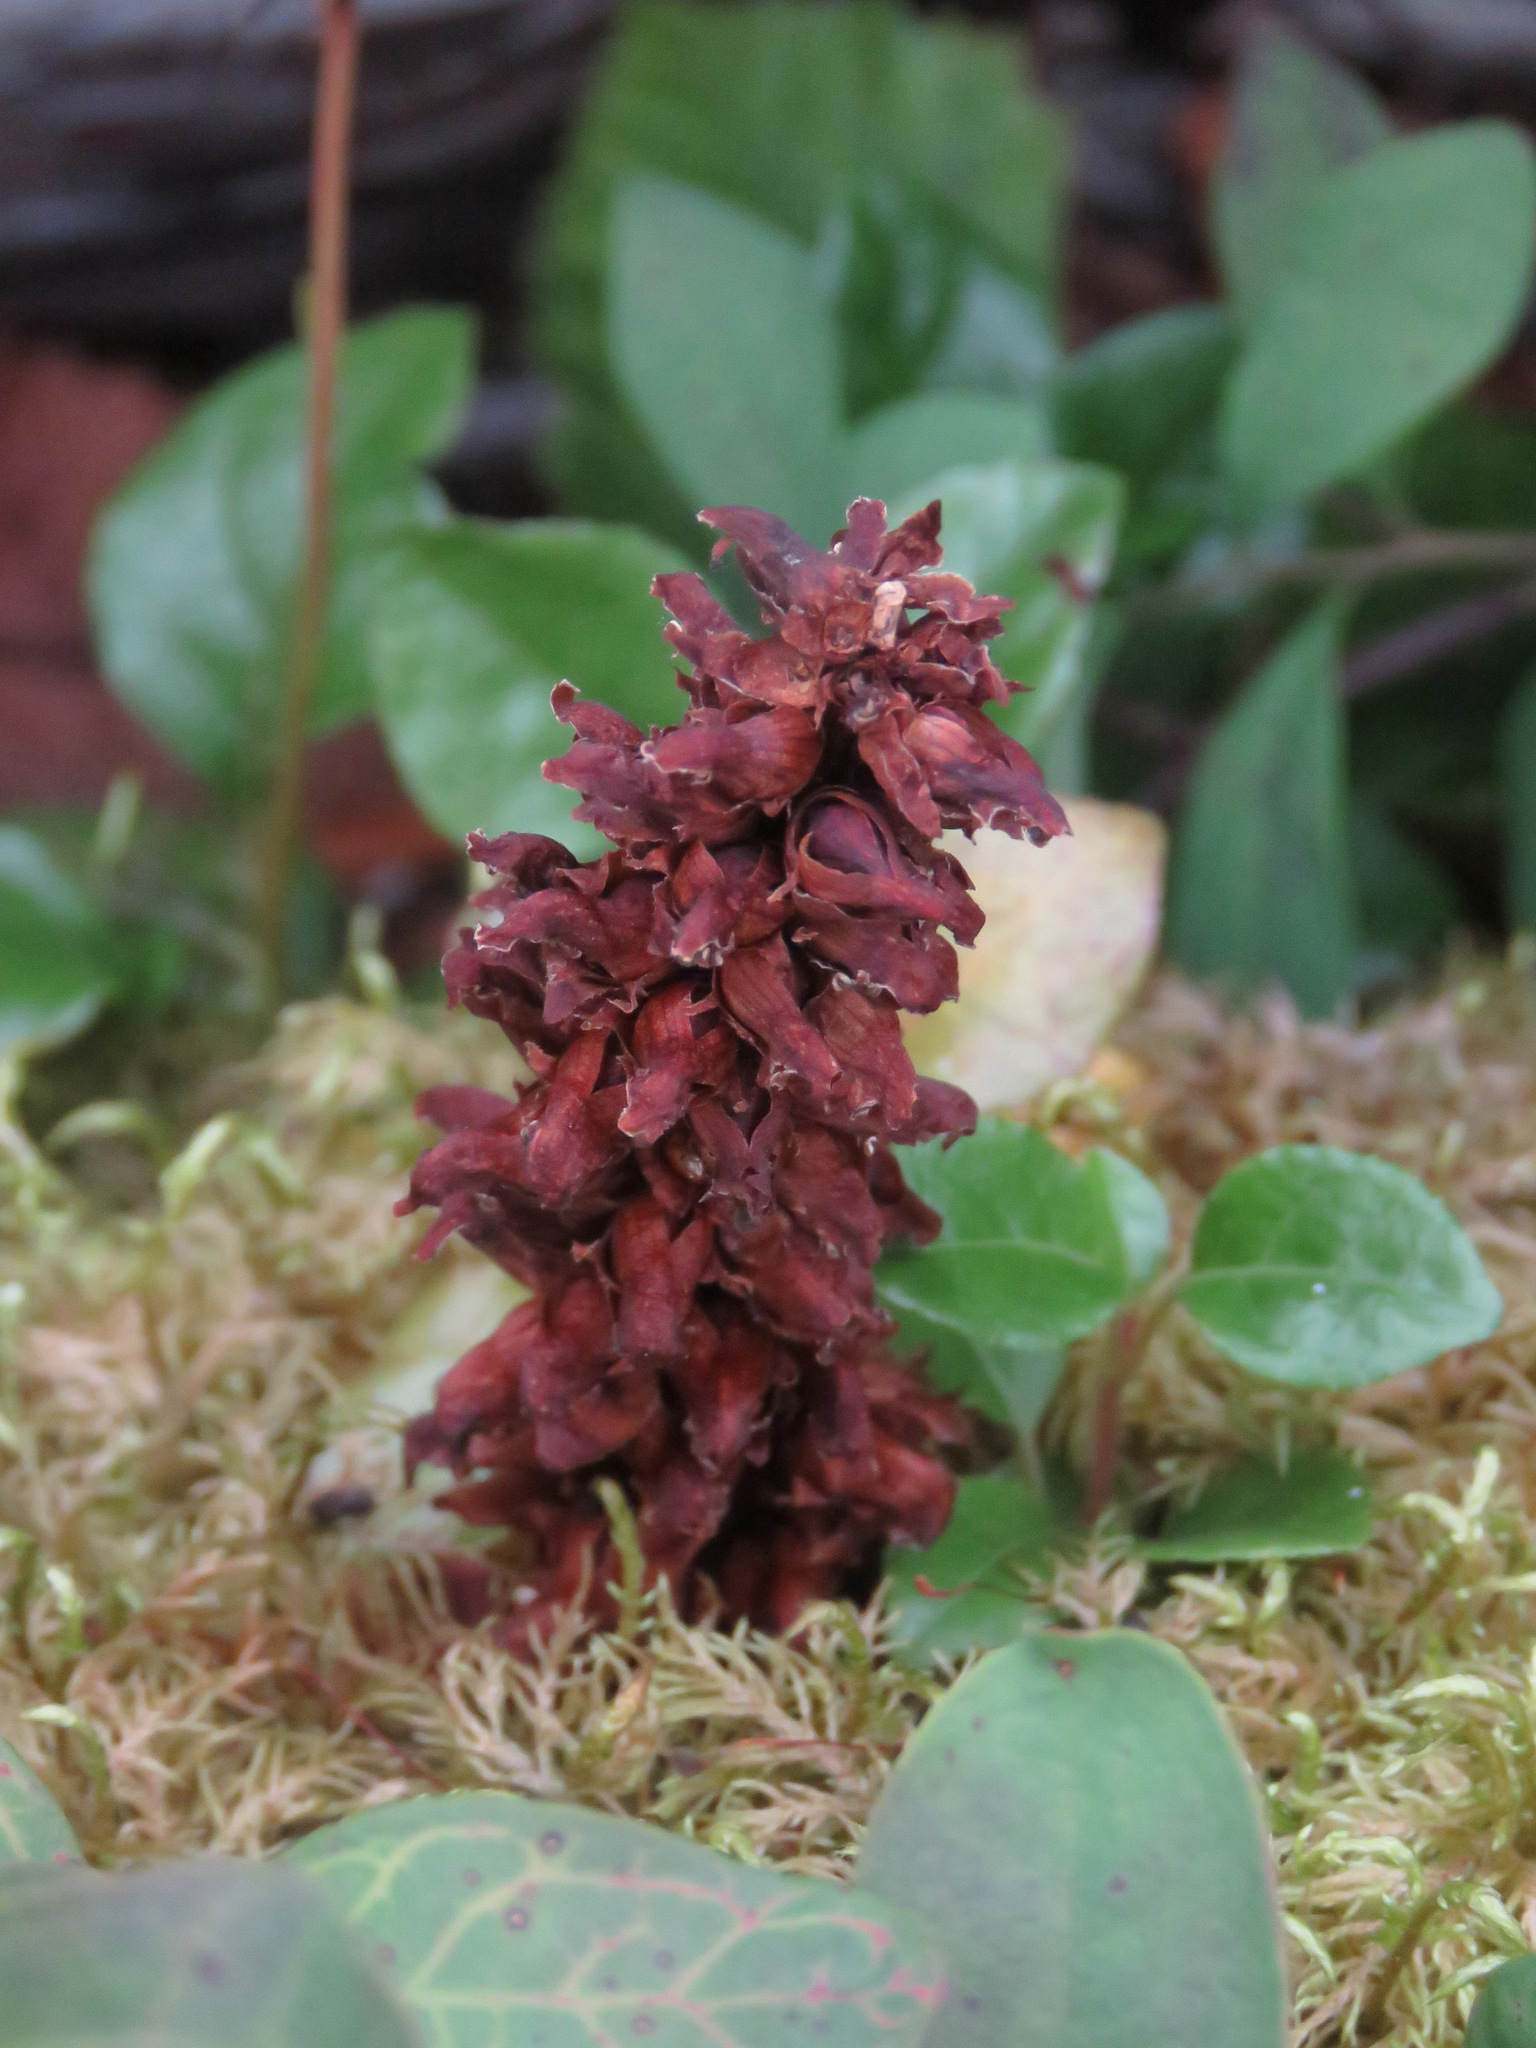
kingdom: Plantae
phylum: Tracheophyta
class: Magnoliopsida
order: Lamiales
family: Orobanchaceae
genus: Boschniakia
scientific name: Boschniakia rossica
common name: Poque
